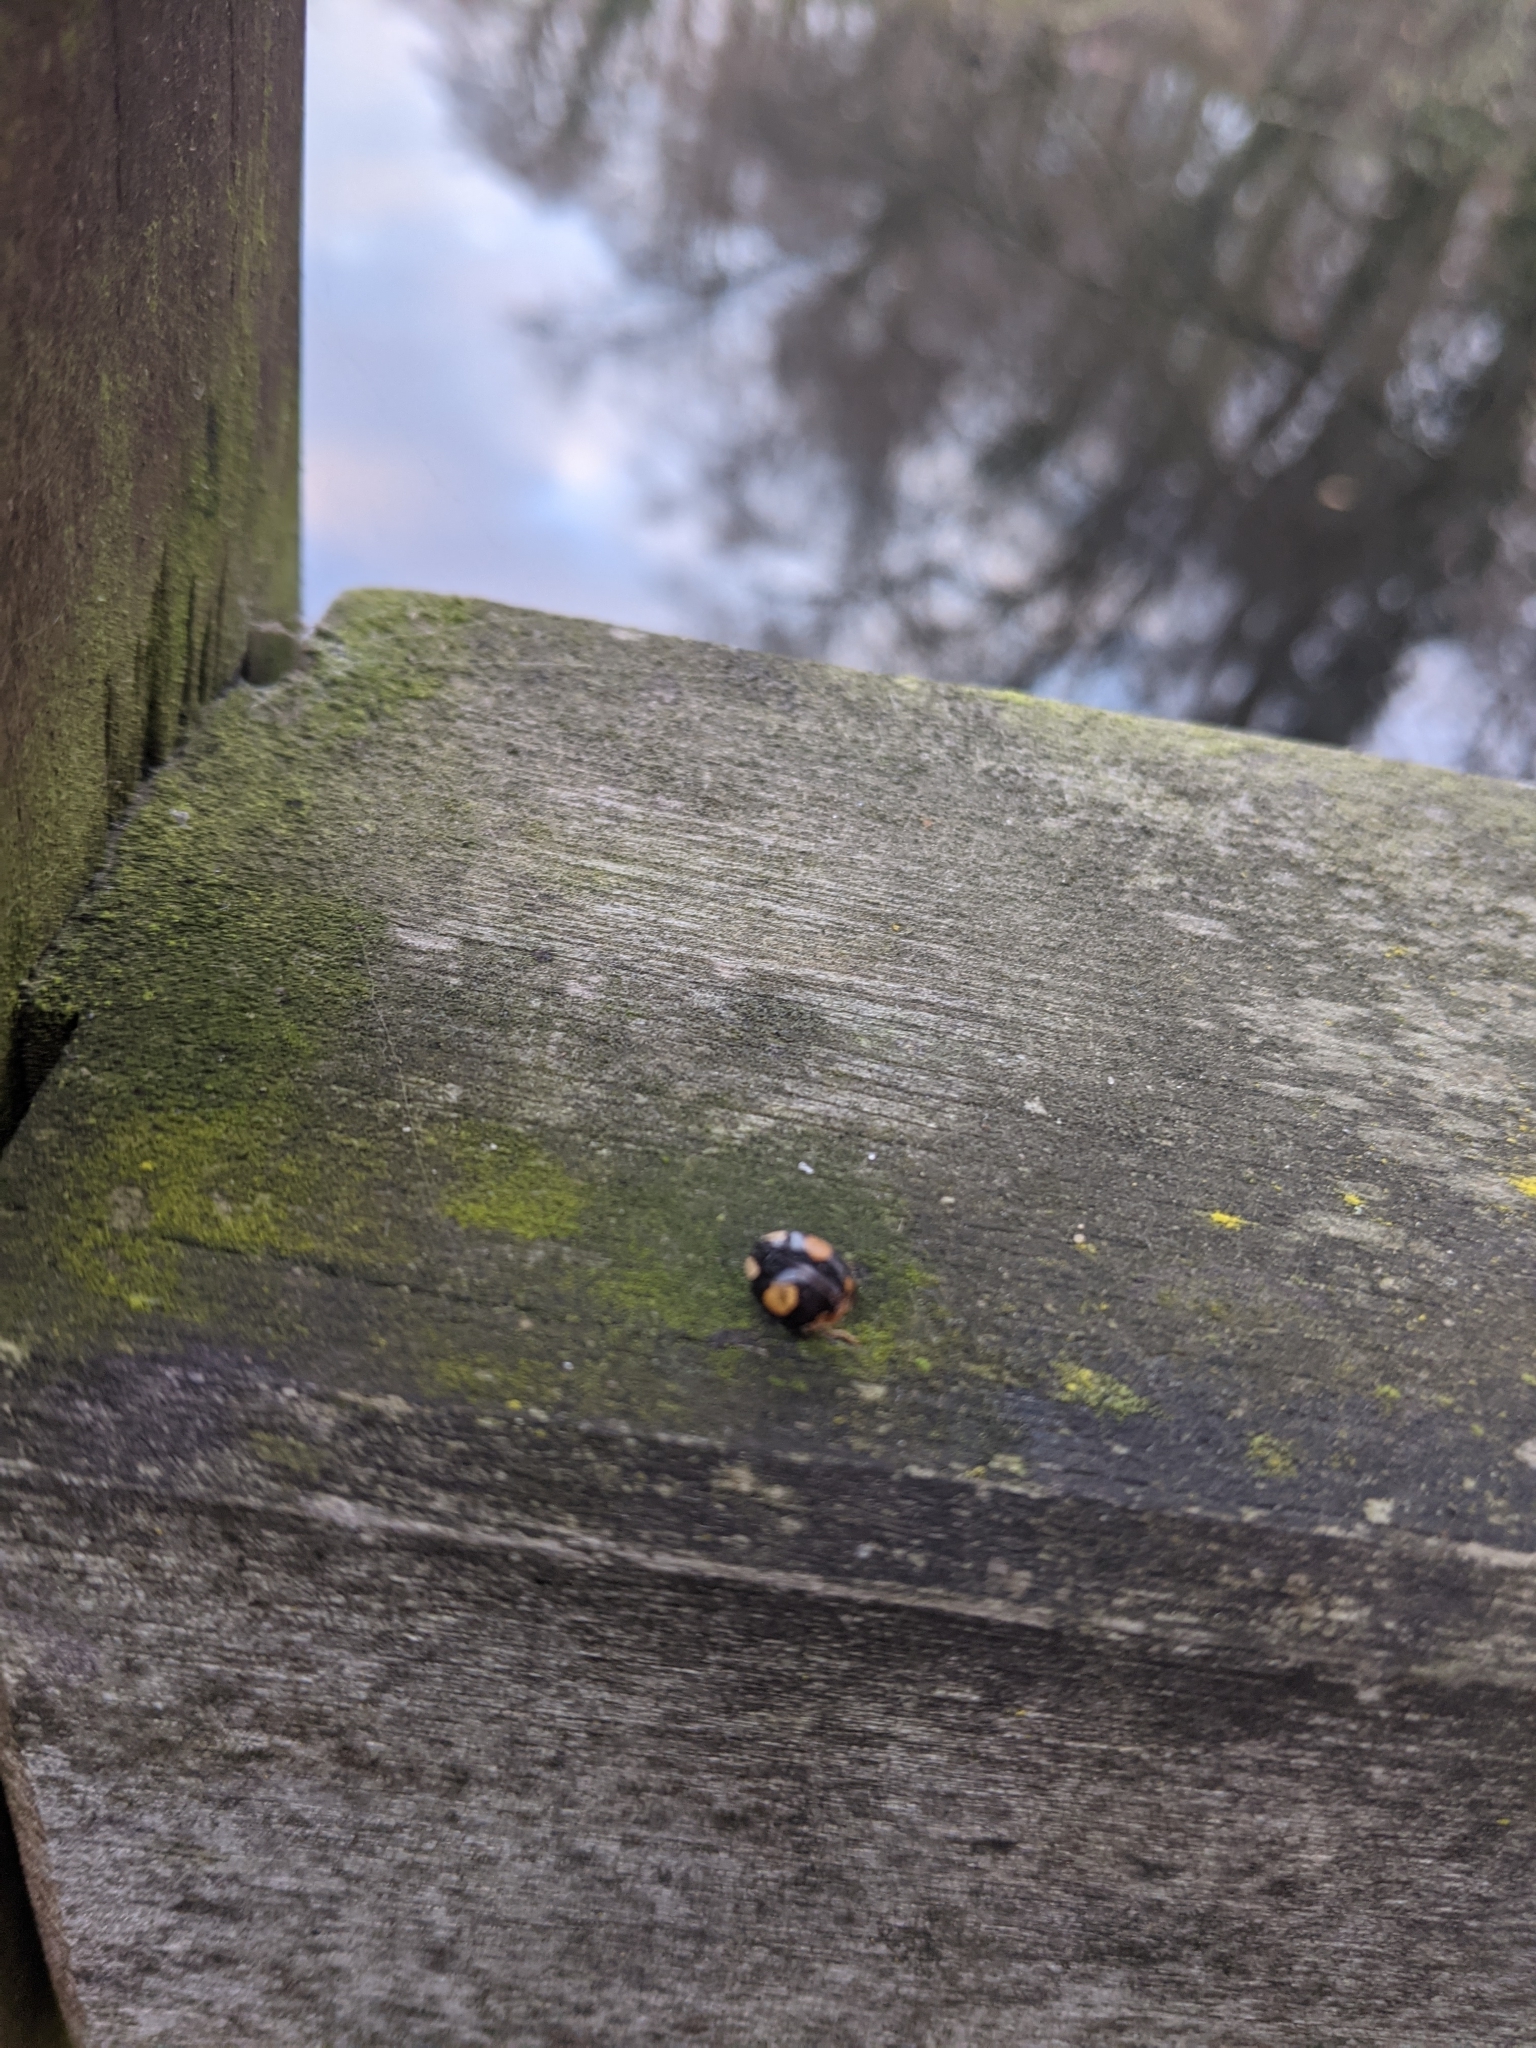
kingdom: Animalia
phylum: Arthropoda
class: Insecta
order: Coleoptera
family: Coccinellidae
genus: Harmonia
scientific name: Harmonia axyridis
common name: Harlequin ladybird
